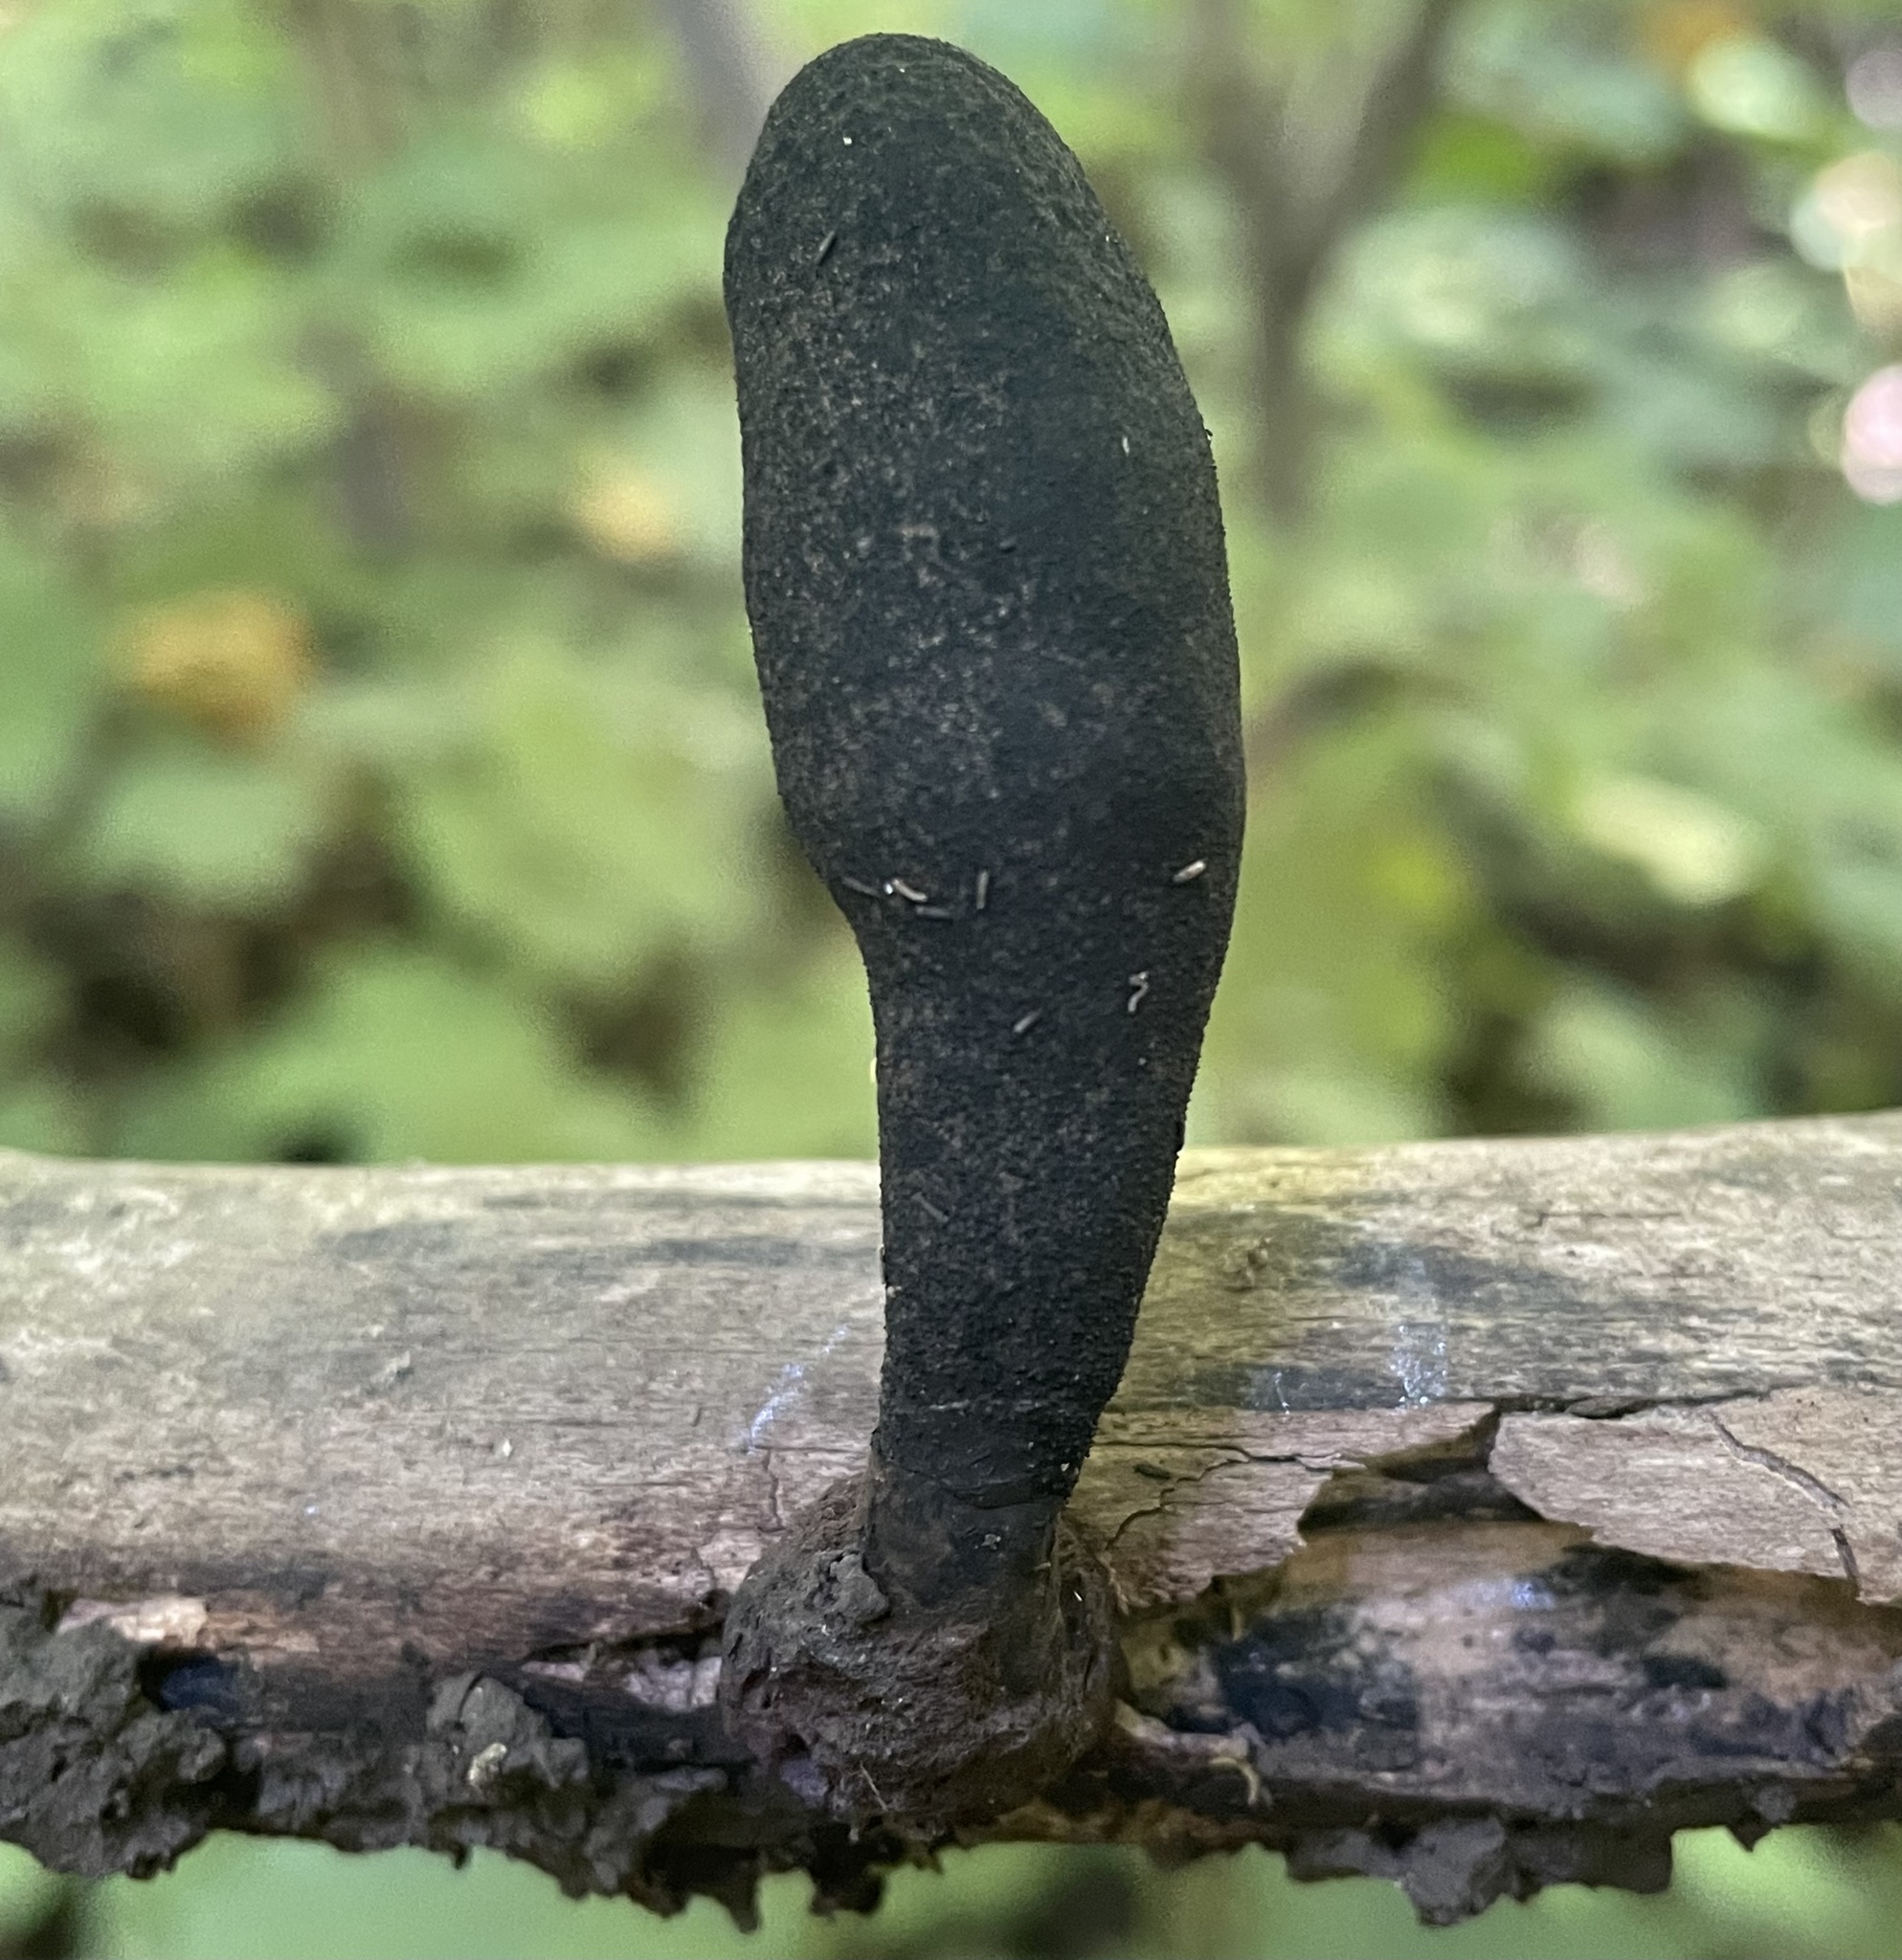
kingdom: Fungi
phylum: Ascomycota
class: Sordariomycetes
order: Xylariales
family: Xylariaceae
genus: Xylaria
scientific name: Xylaria longipes
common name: Dead moll's fingers
